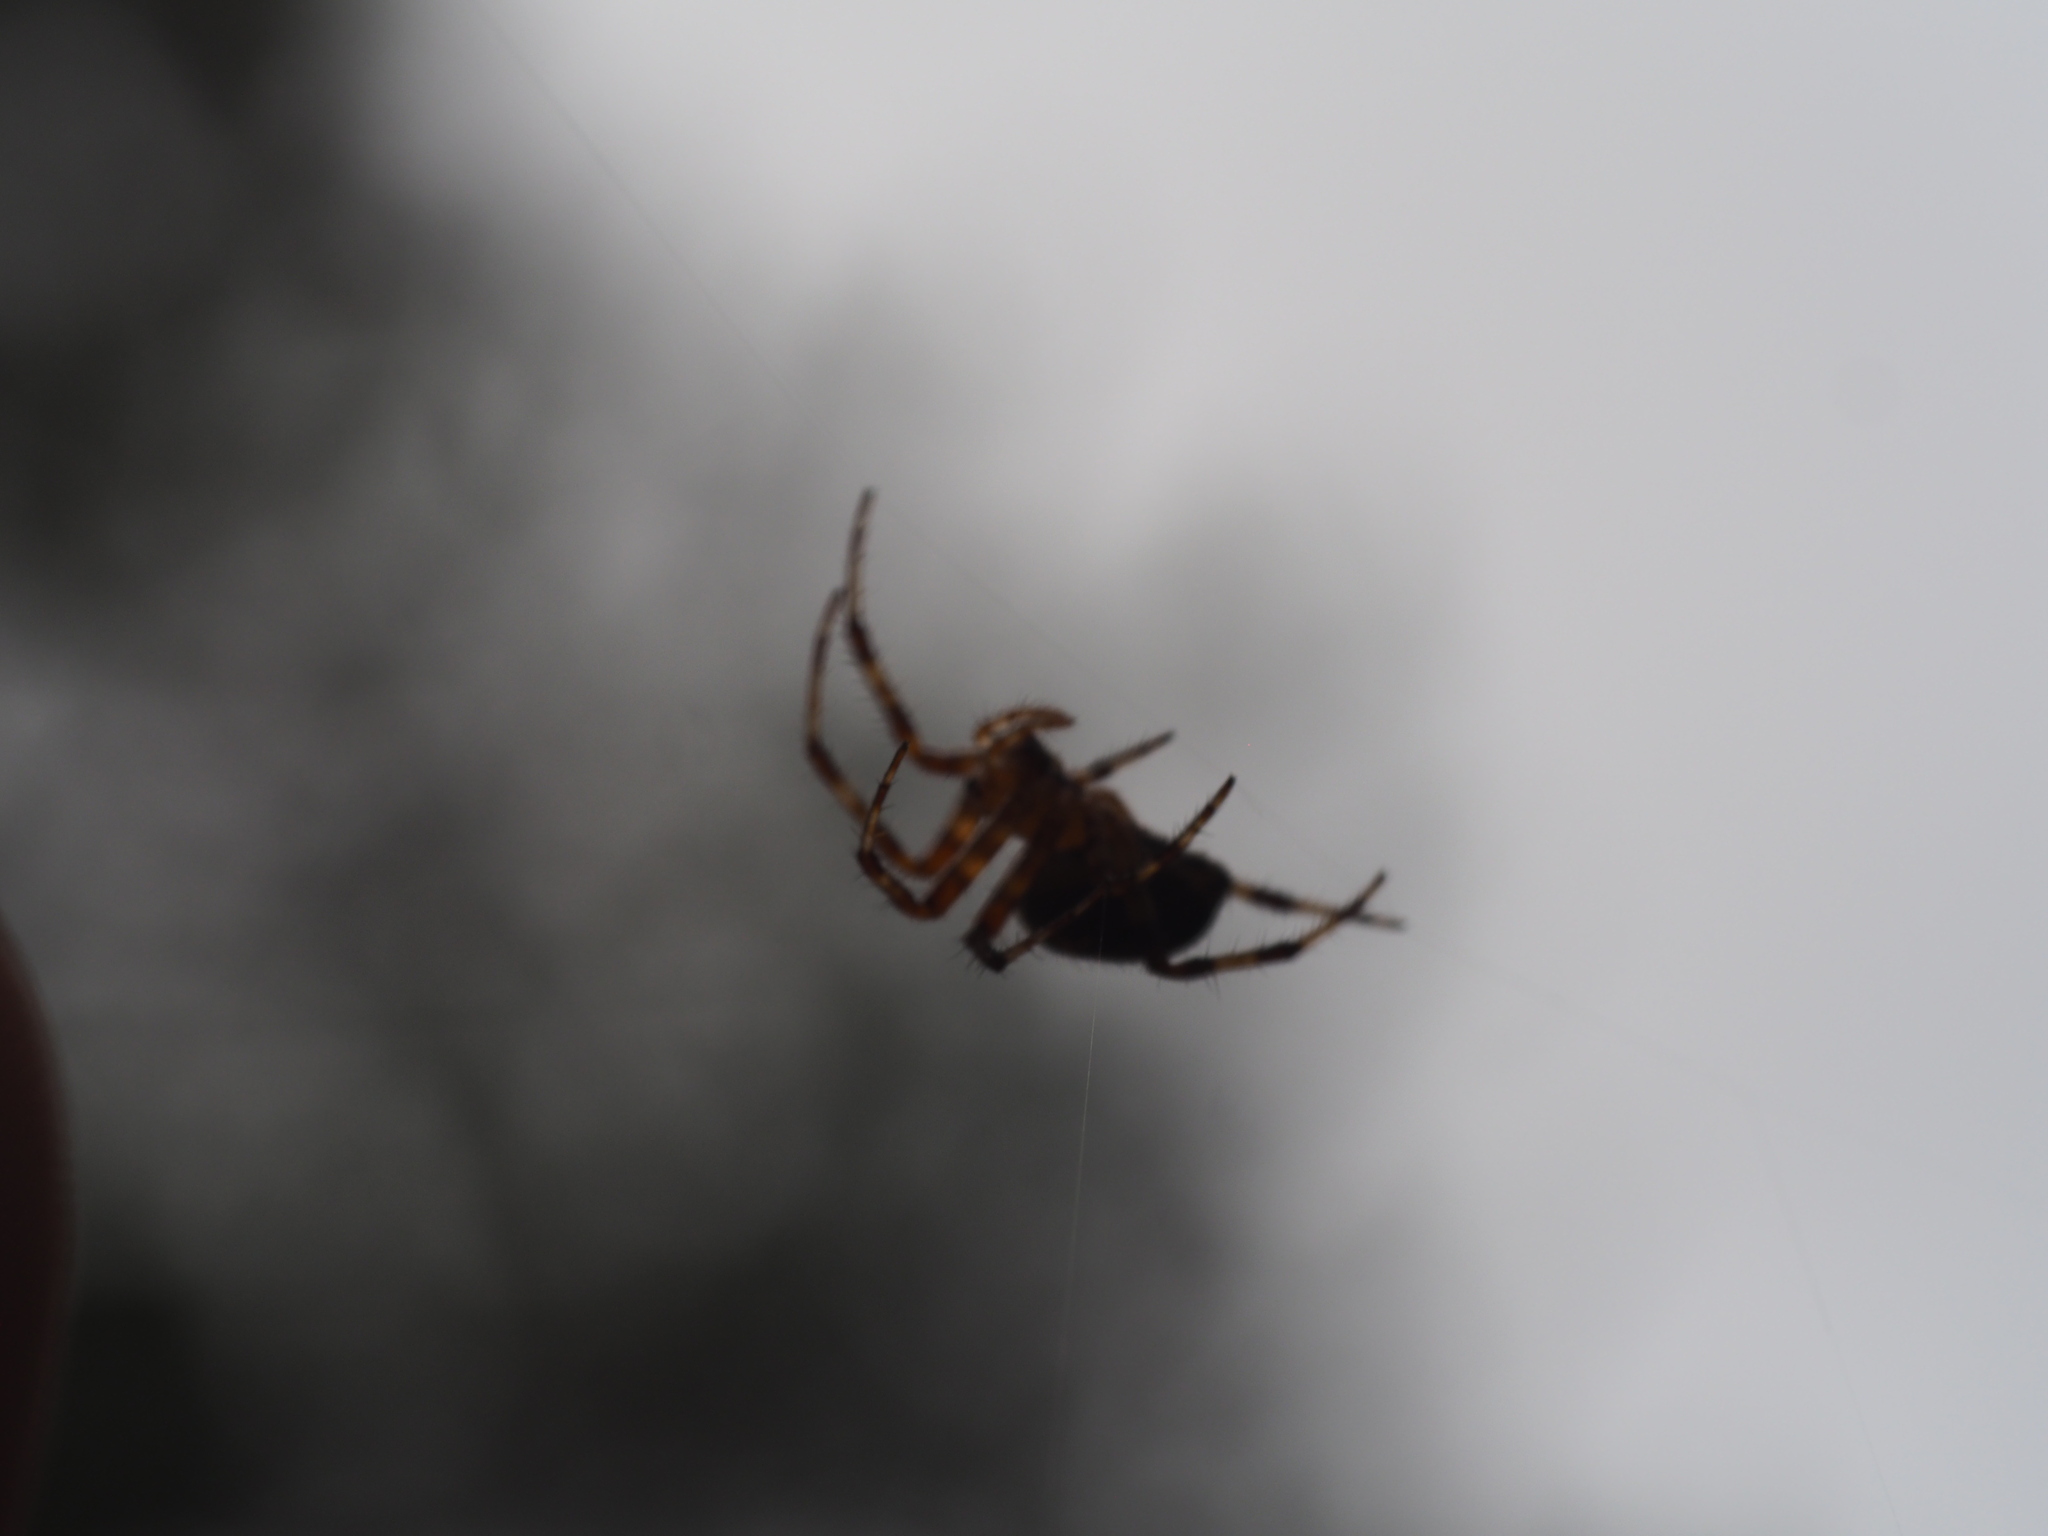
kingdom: Animalia
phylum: Arthropoda
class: Arachnida
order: Araneae
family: Araneidae
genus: Araneus
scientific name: Araneus diadematus
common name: Cross orbweaver
